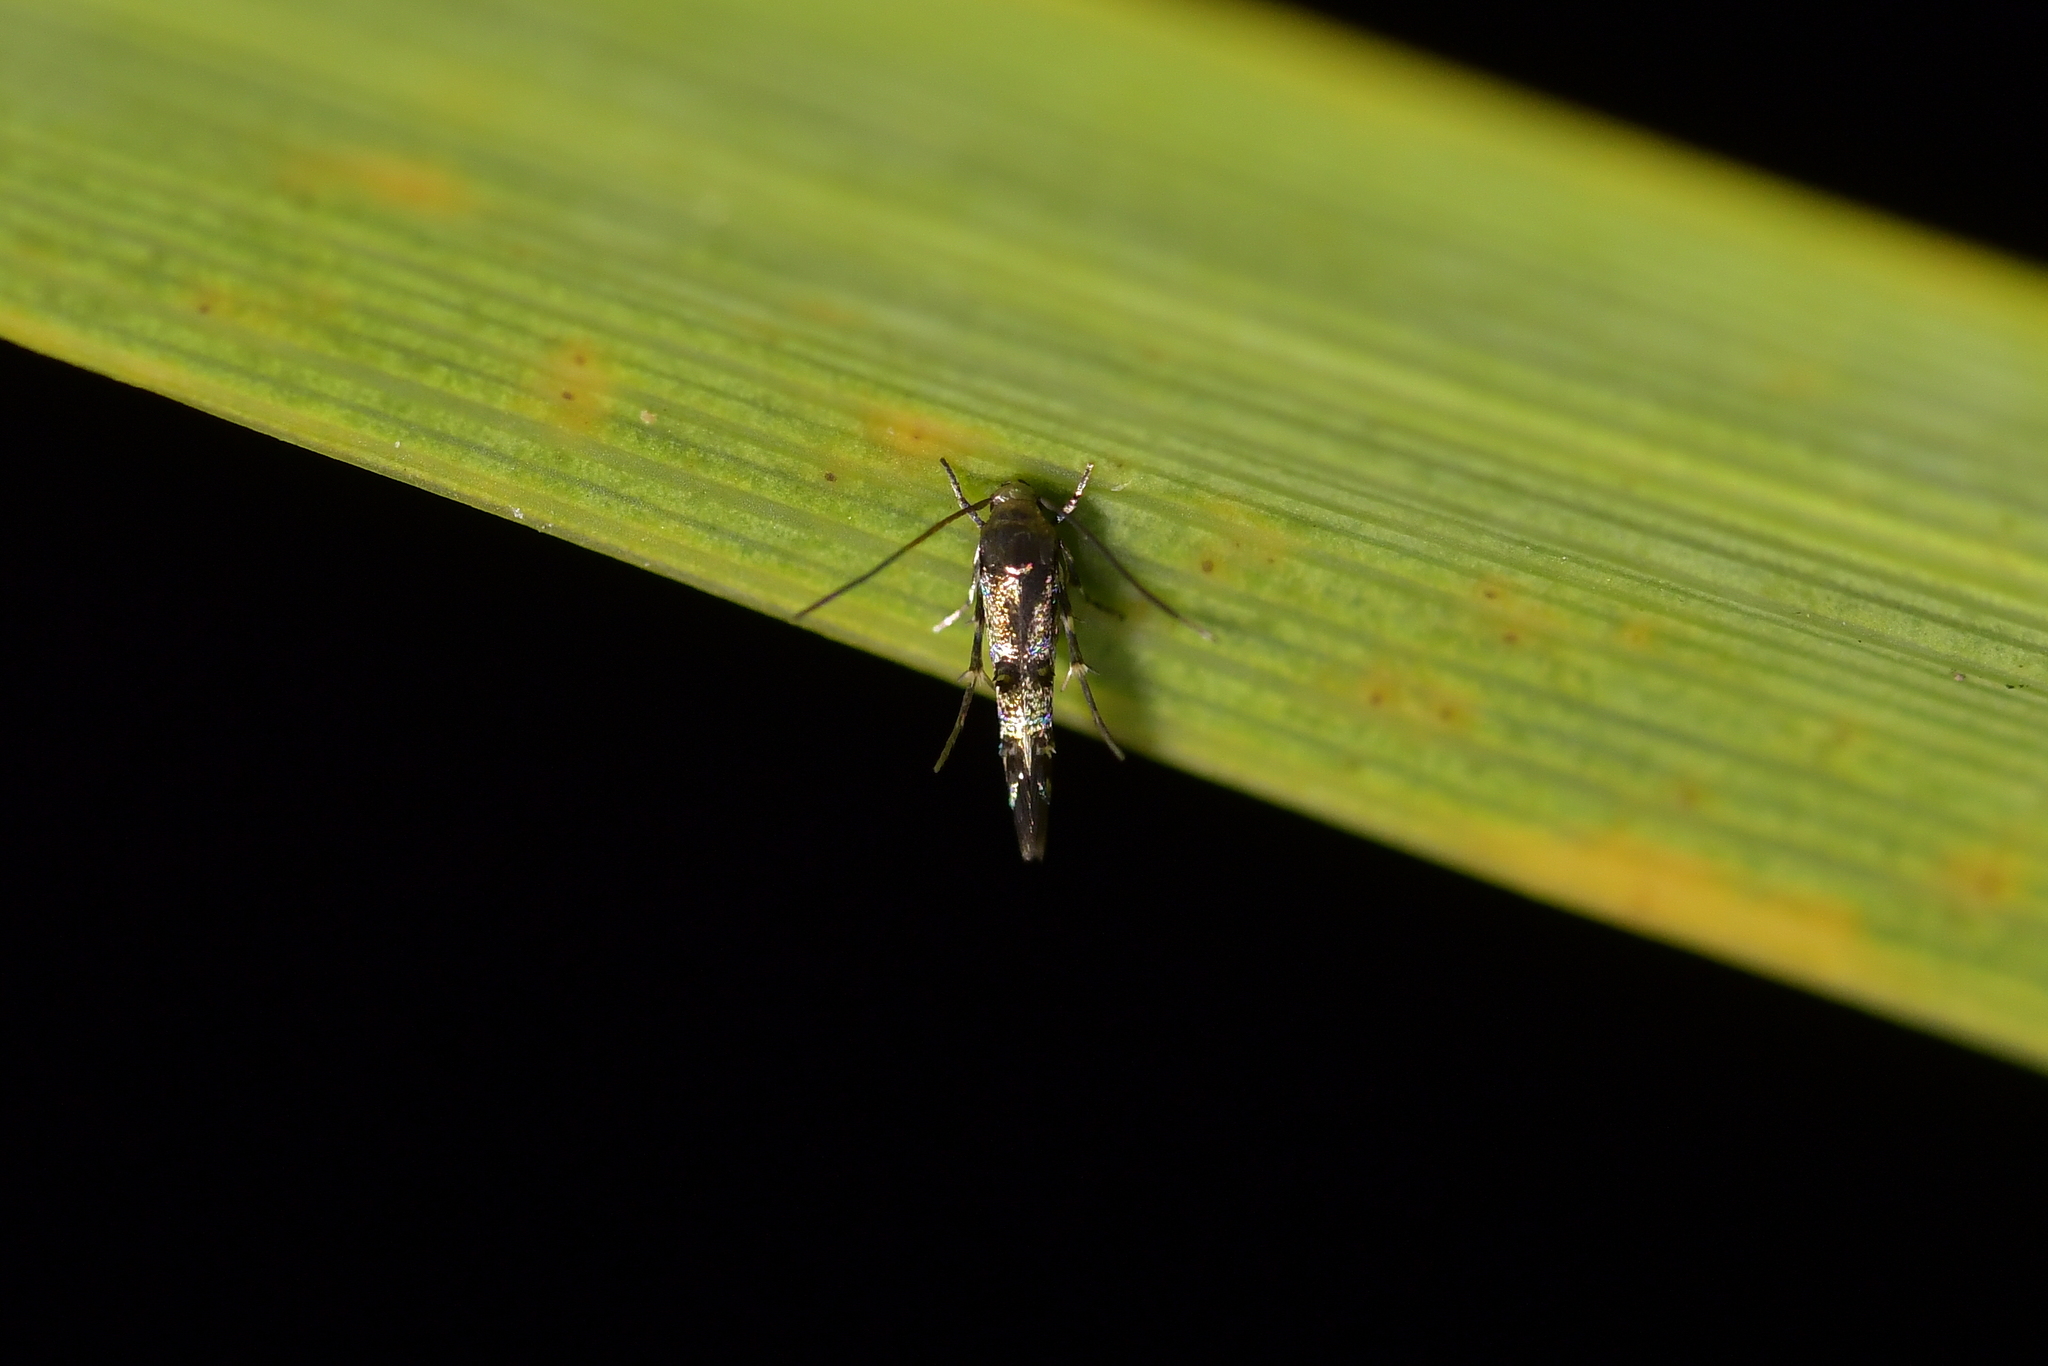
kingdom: Animalia
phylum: Arthropoda
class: Insecta
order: Lepidoptera
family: Momphidae
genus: Zapyrastra
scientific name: Zapyrastra calliphana
